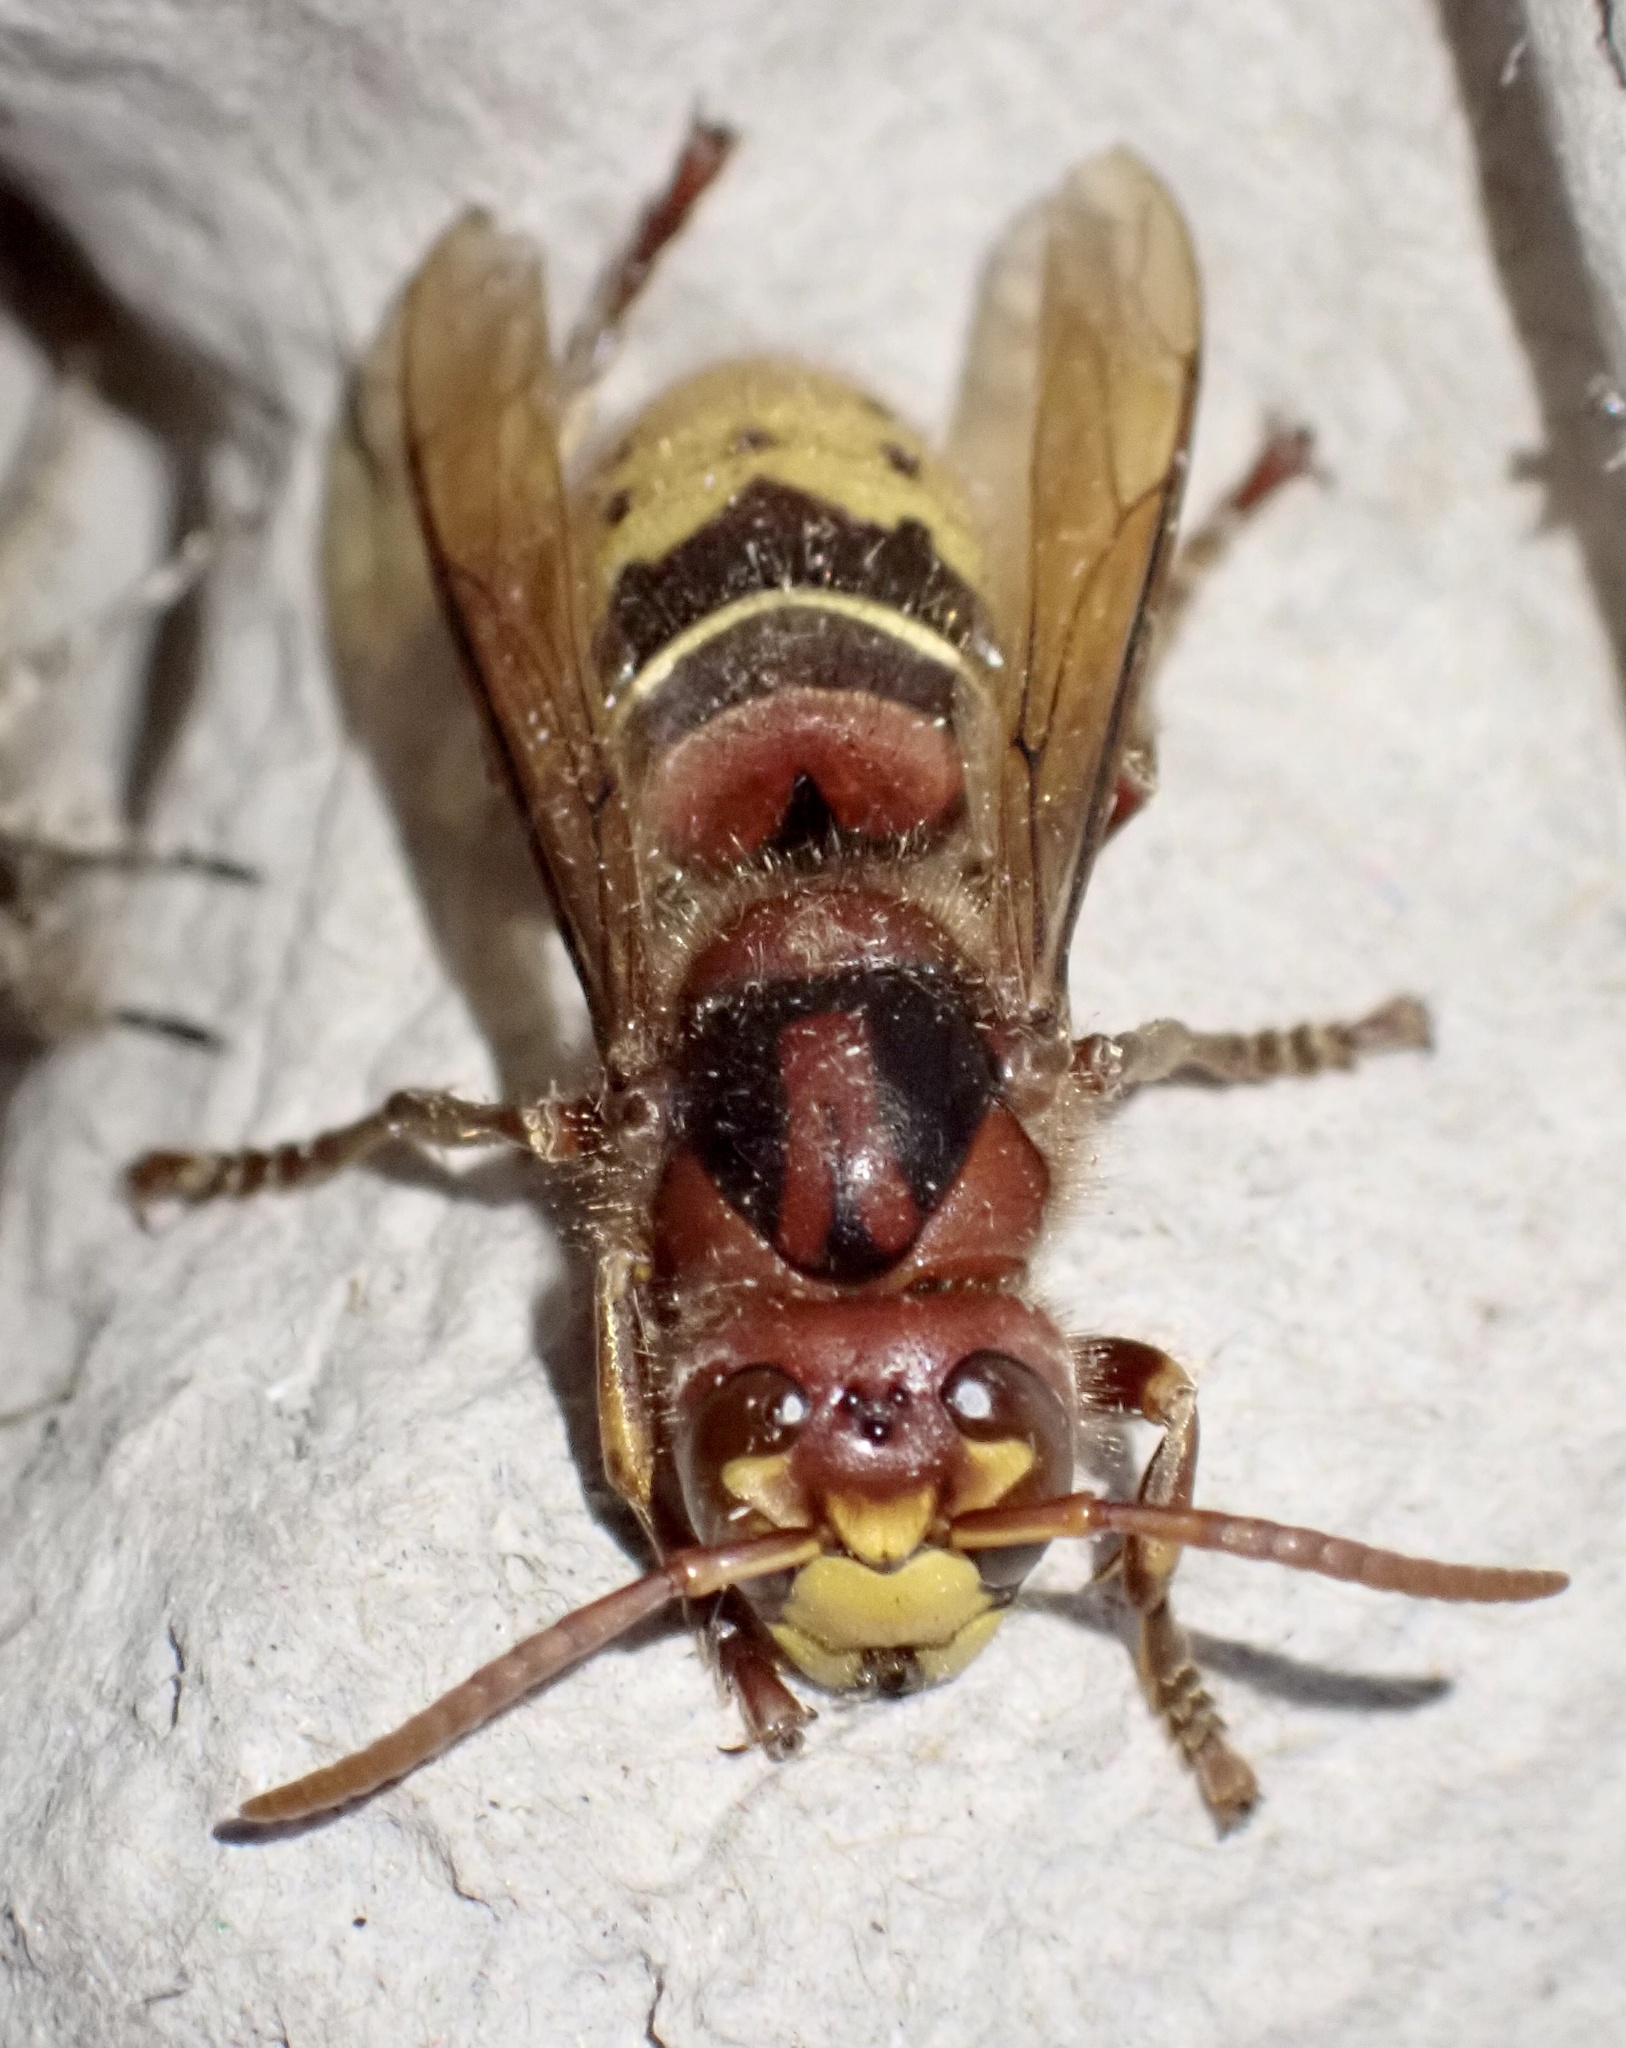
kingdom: Animalia
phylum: Arthropoda
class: Insecta
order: Hymenoptera
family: Vespidae
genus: Vespa
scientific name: Vespa crabro
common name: Hornet
